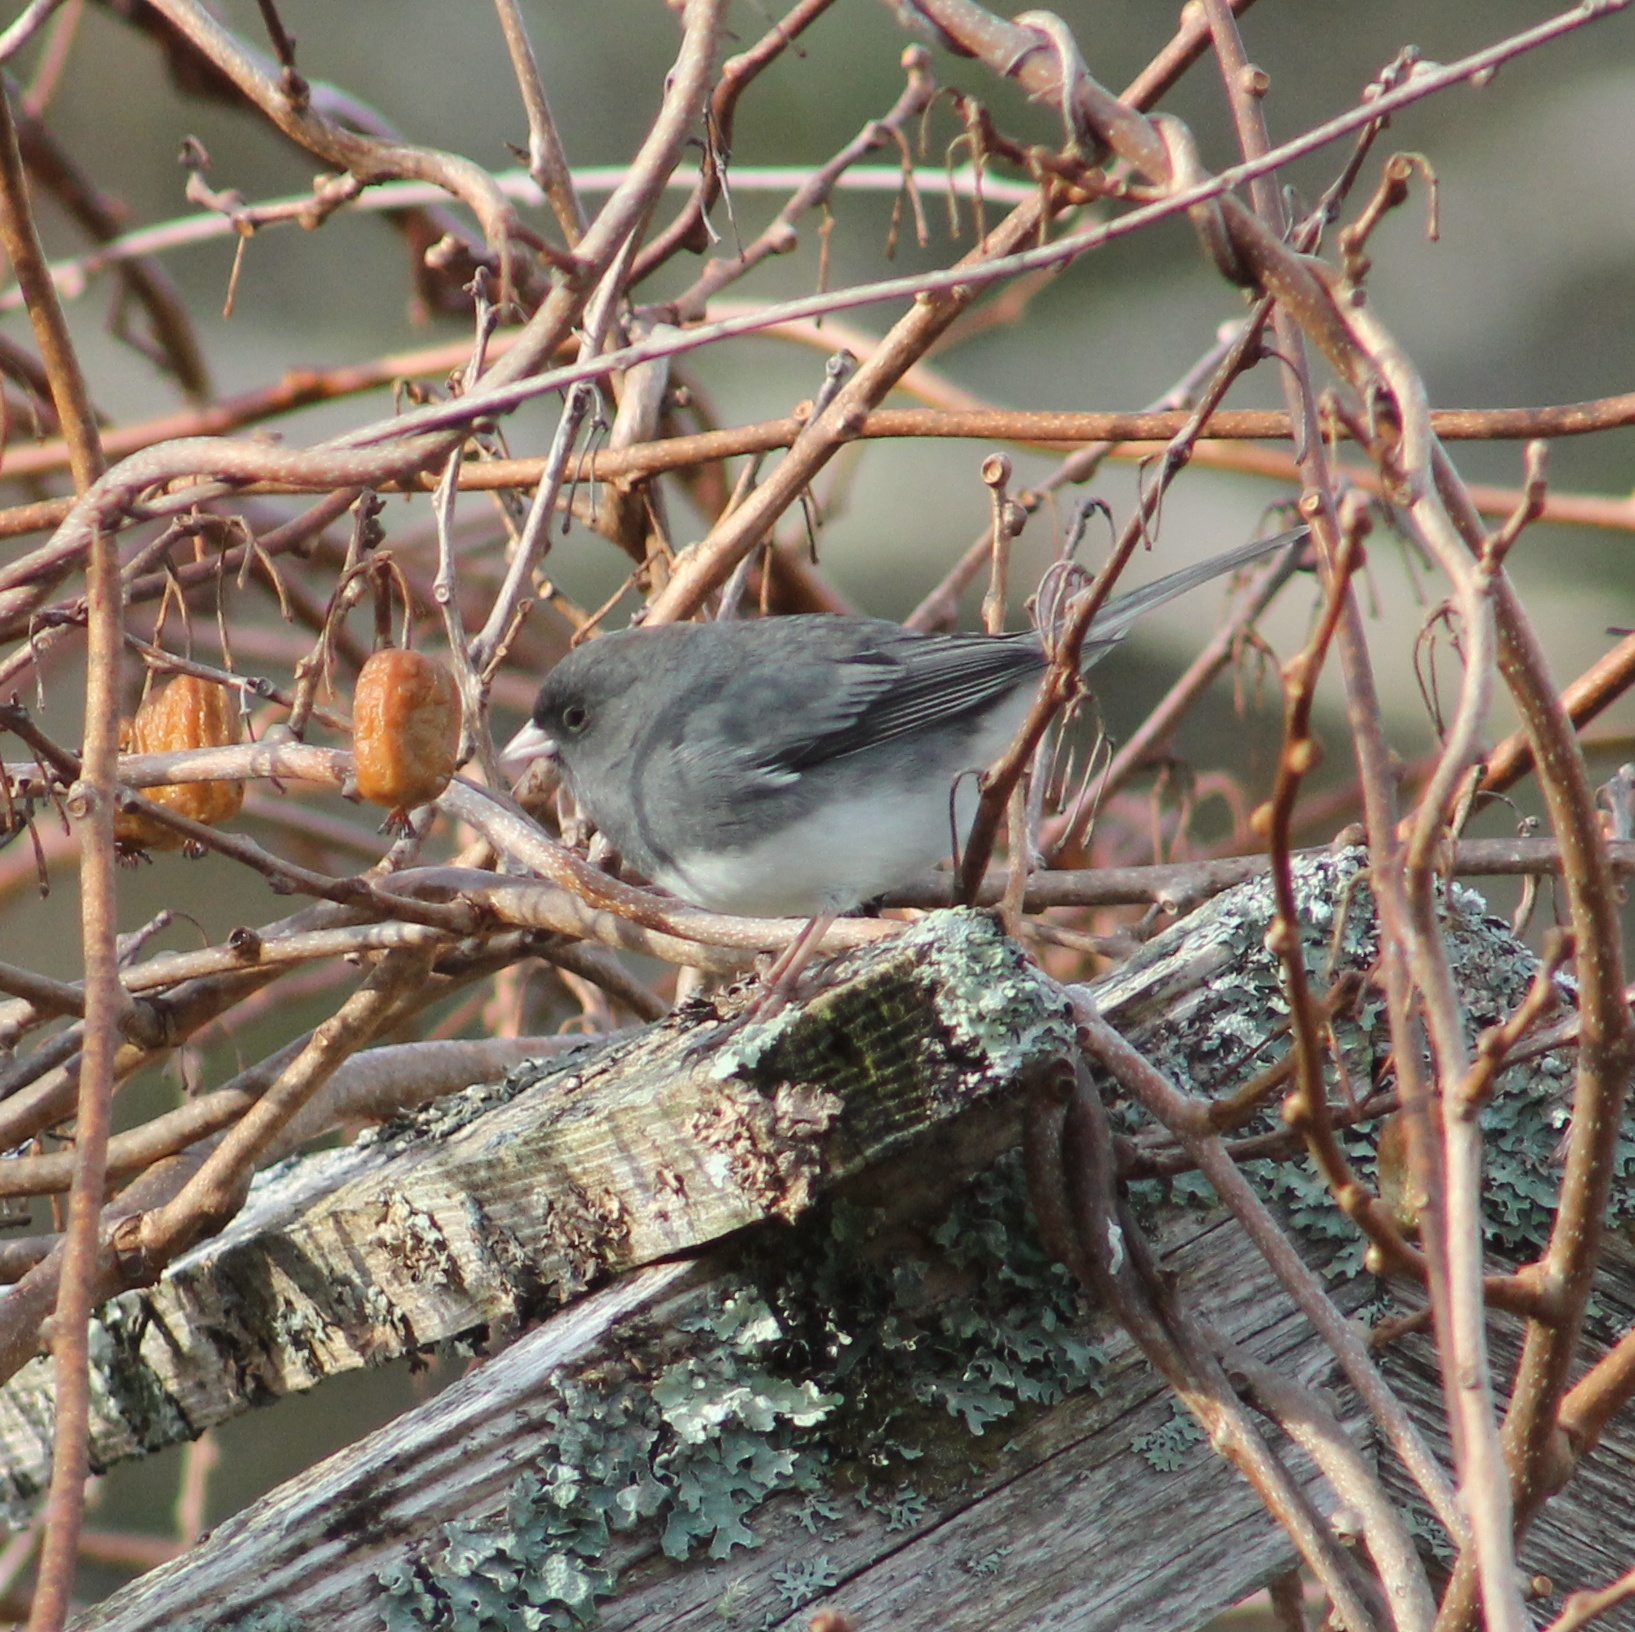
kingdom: Animalia
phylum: Chordata
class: Aves
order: Passeriformes
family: Passerellidae
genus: Junco
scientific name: Junco hyemalis
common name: Dark-eyed junco
